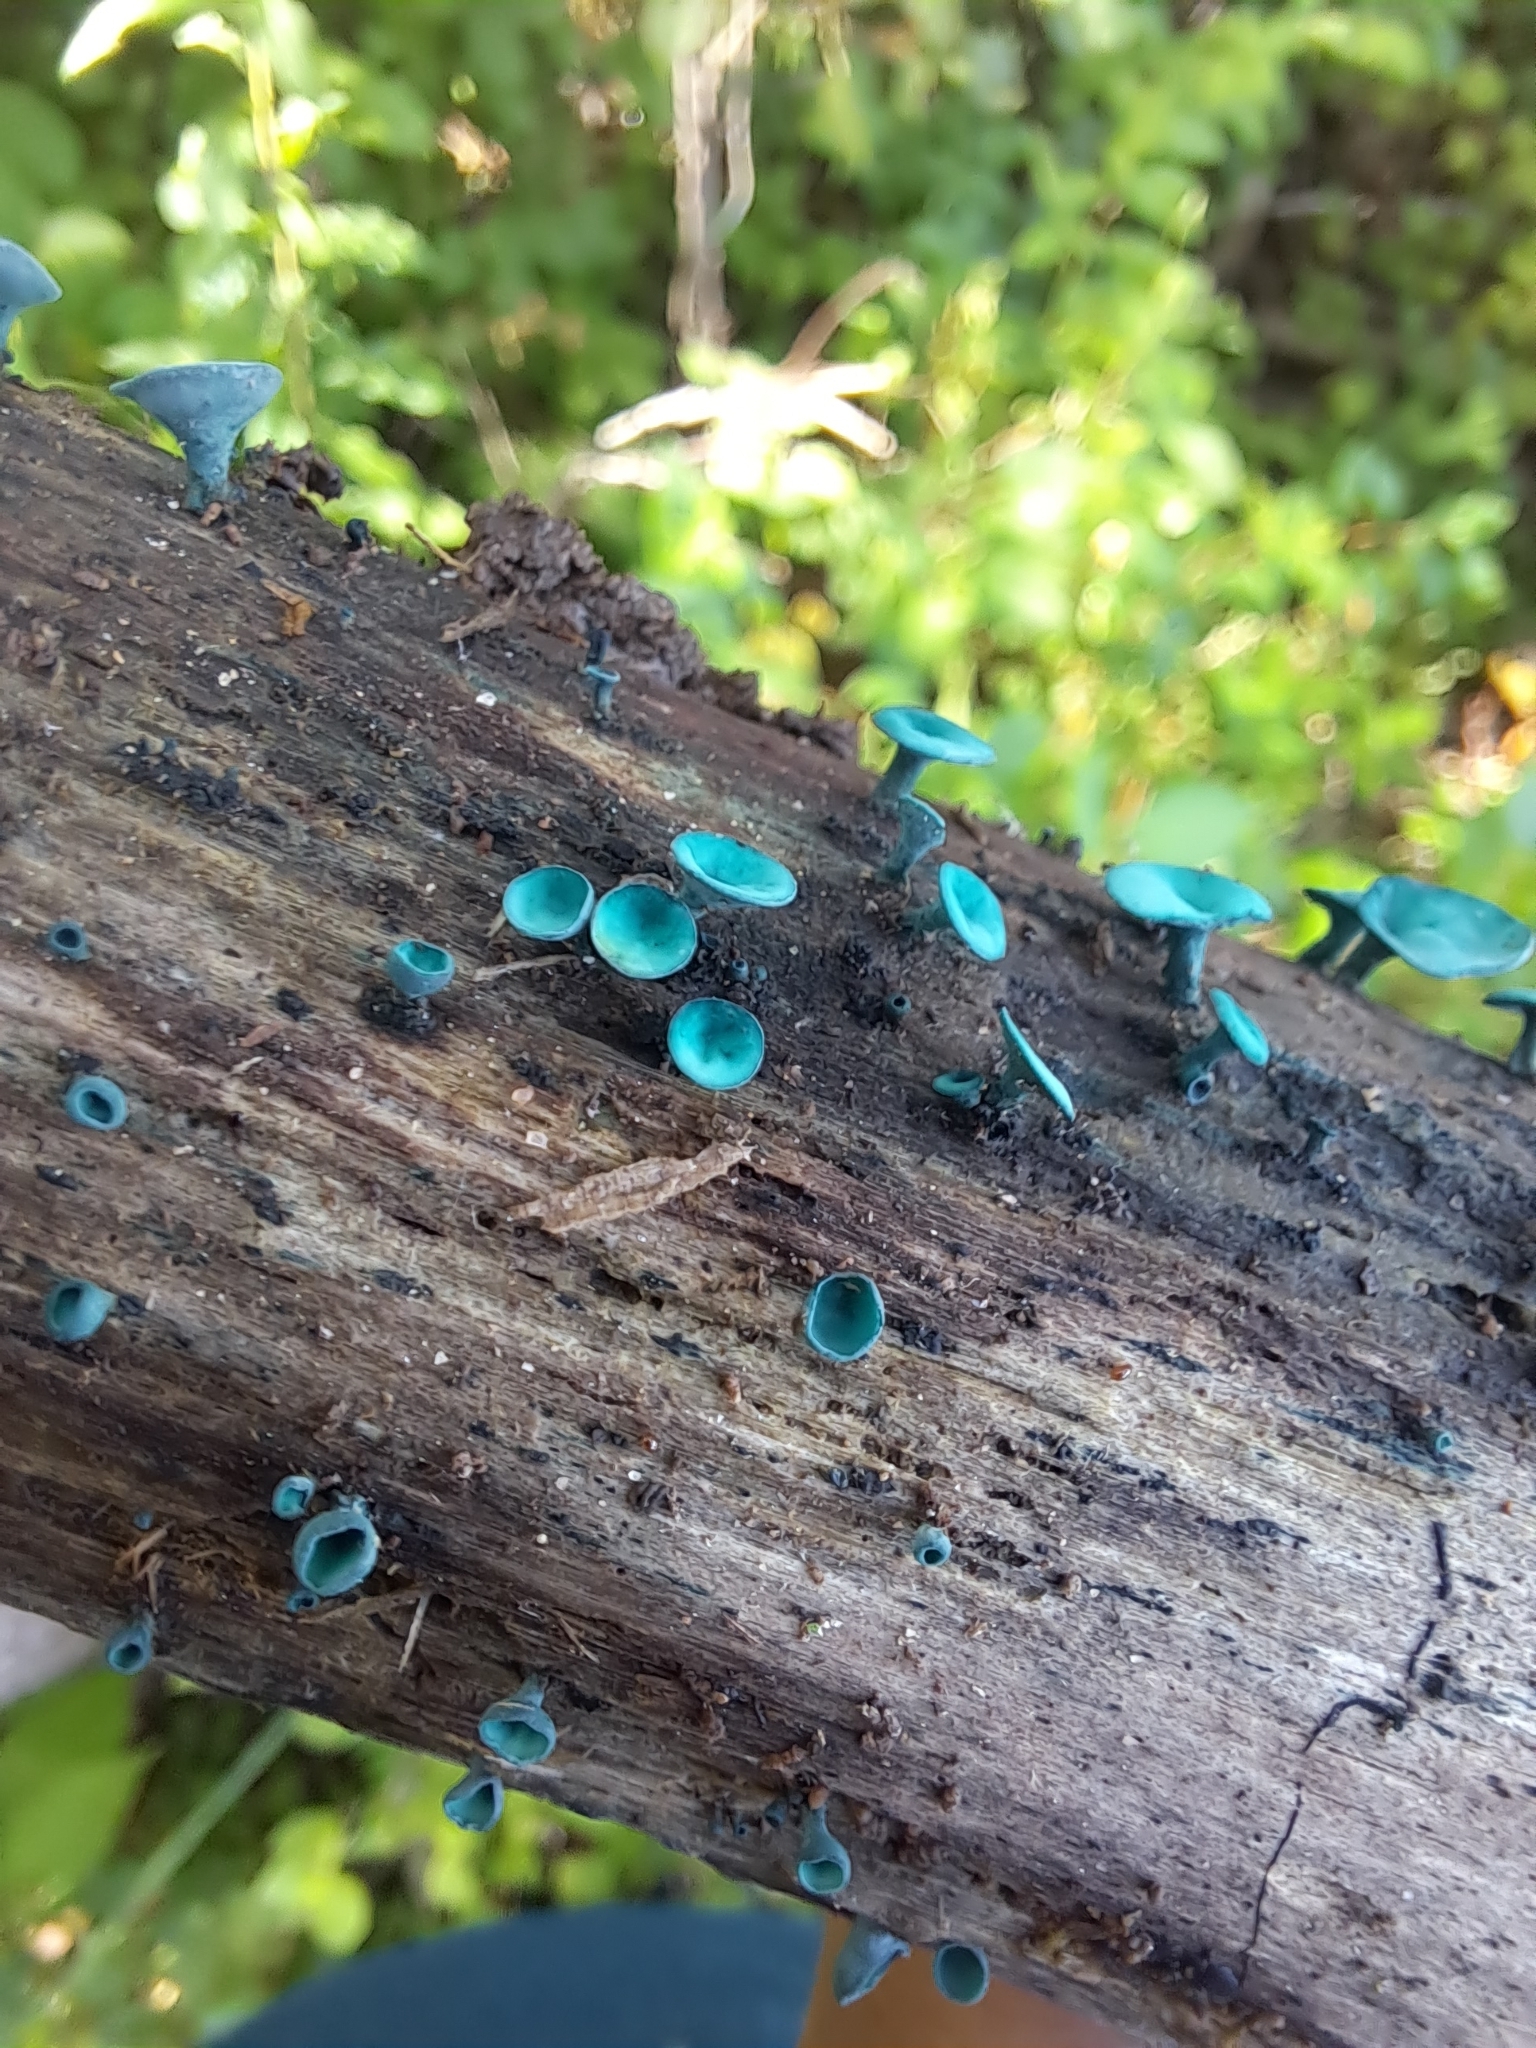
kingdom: Fungi
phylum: Ascomycota
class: Leotiomycetes
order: Helotiales
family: Chlorociboriaceae
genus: Chlorociboria
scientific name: Chlorociboria aeruginosa
